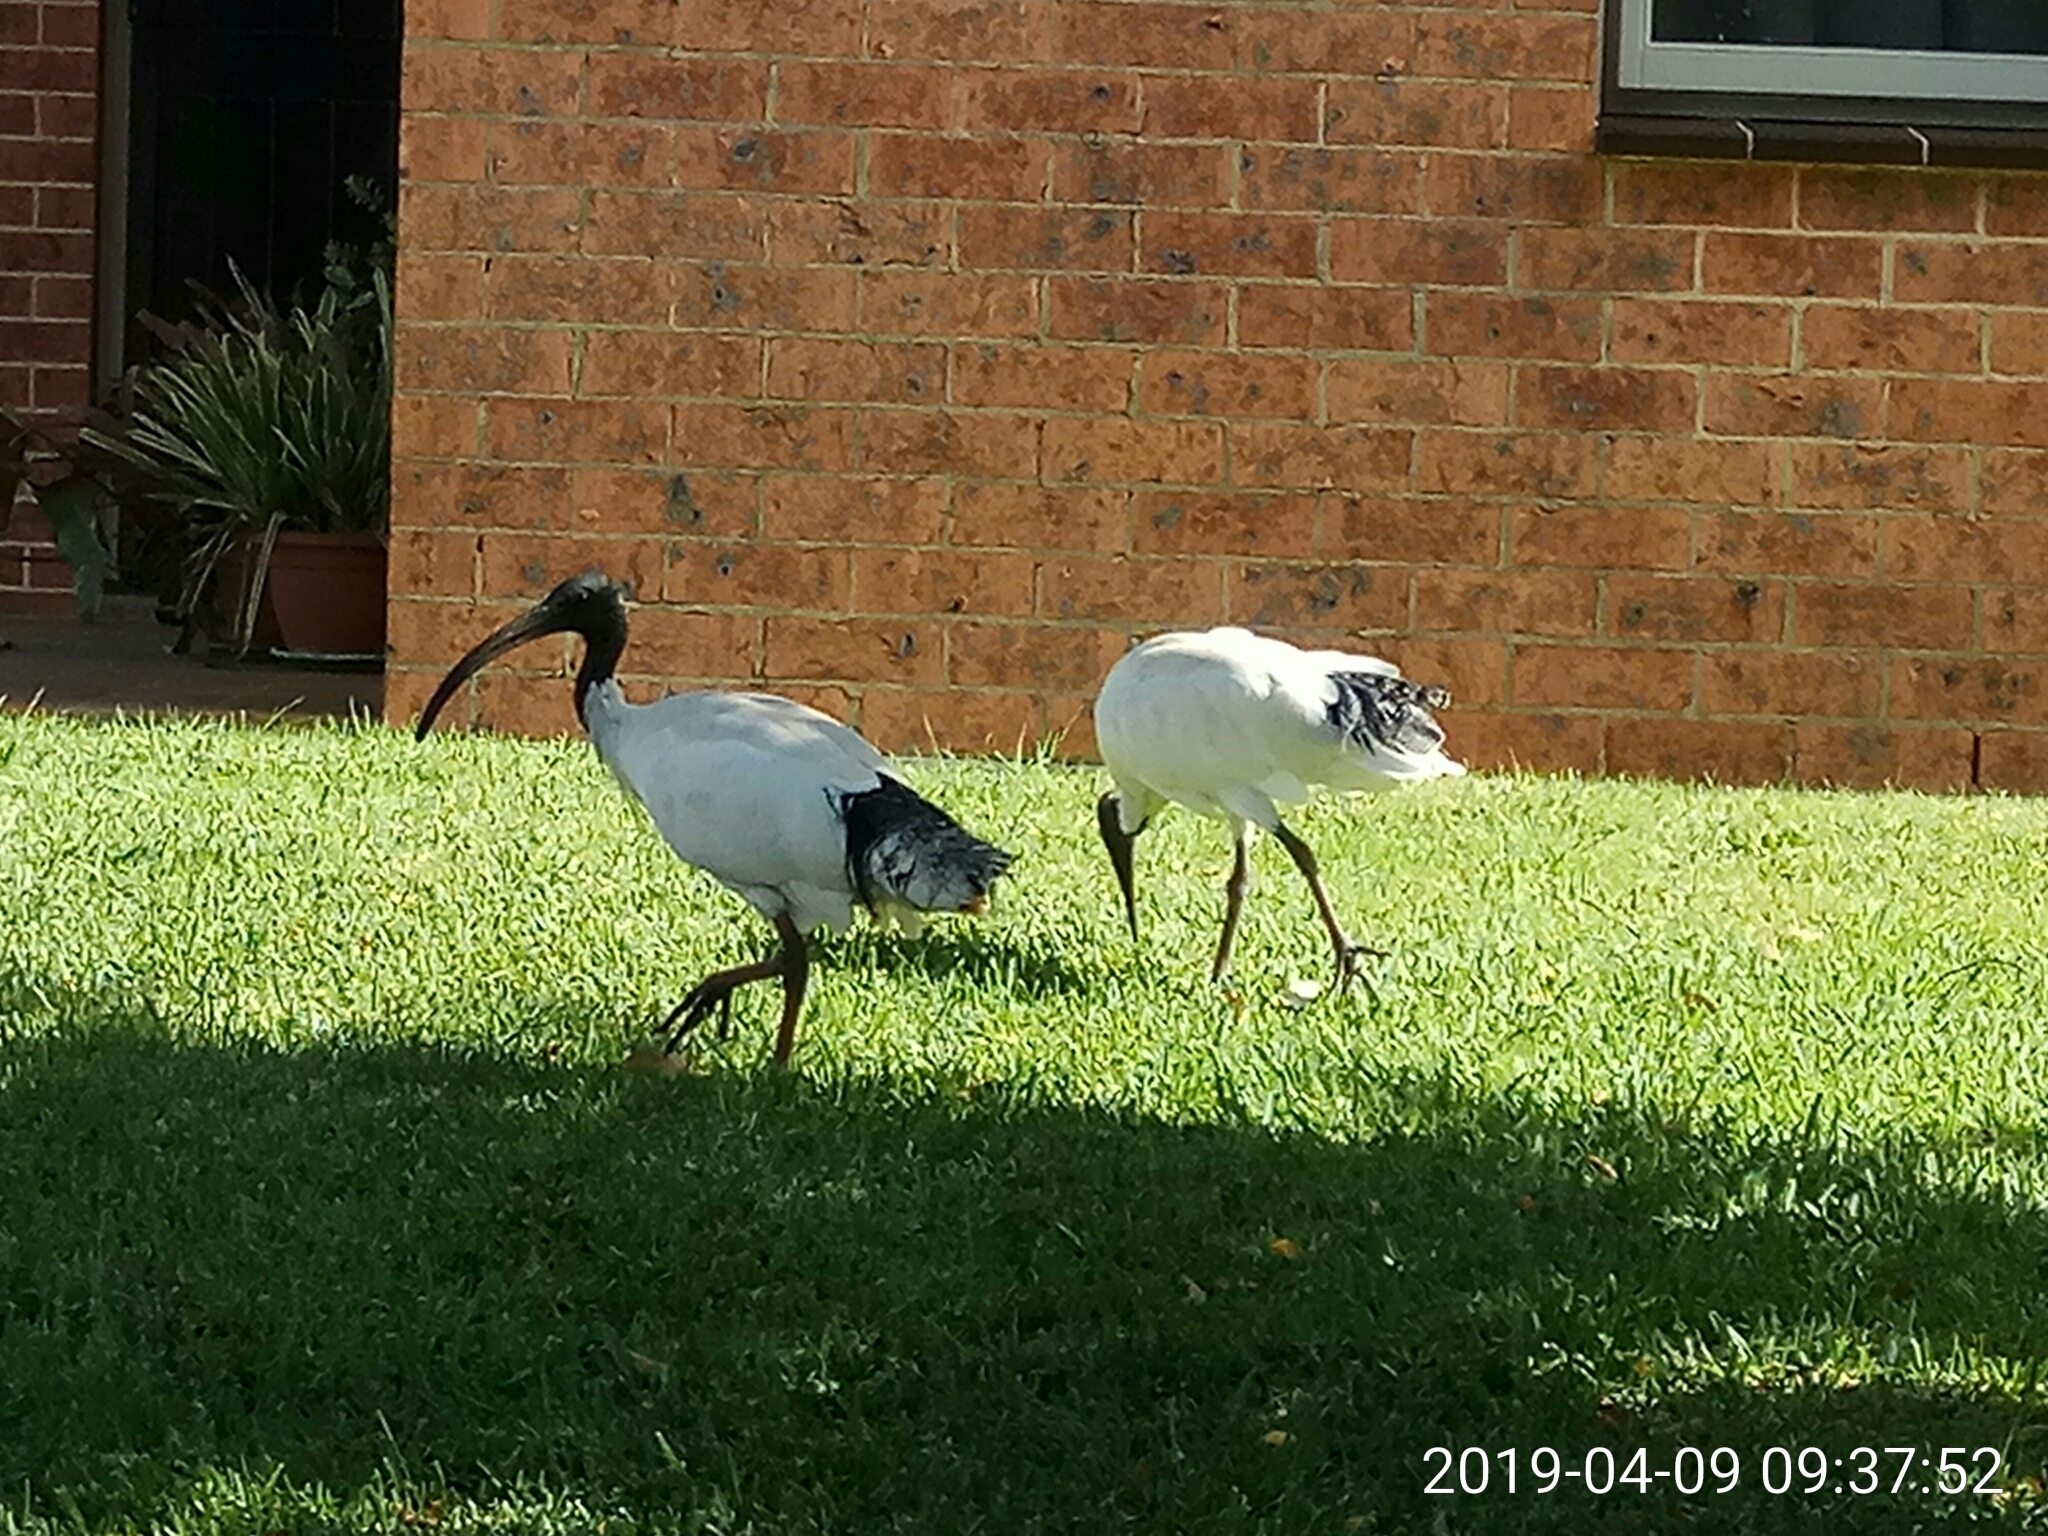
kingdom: Animalia
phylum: Chordata
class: Aves
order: Pelecaniformes
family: Threskiornithidae
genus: Threskiornis
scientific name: Threskiornis molucca
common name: Australian white ibis
